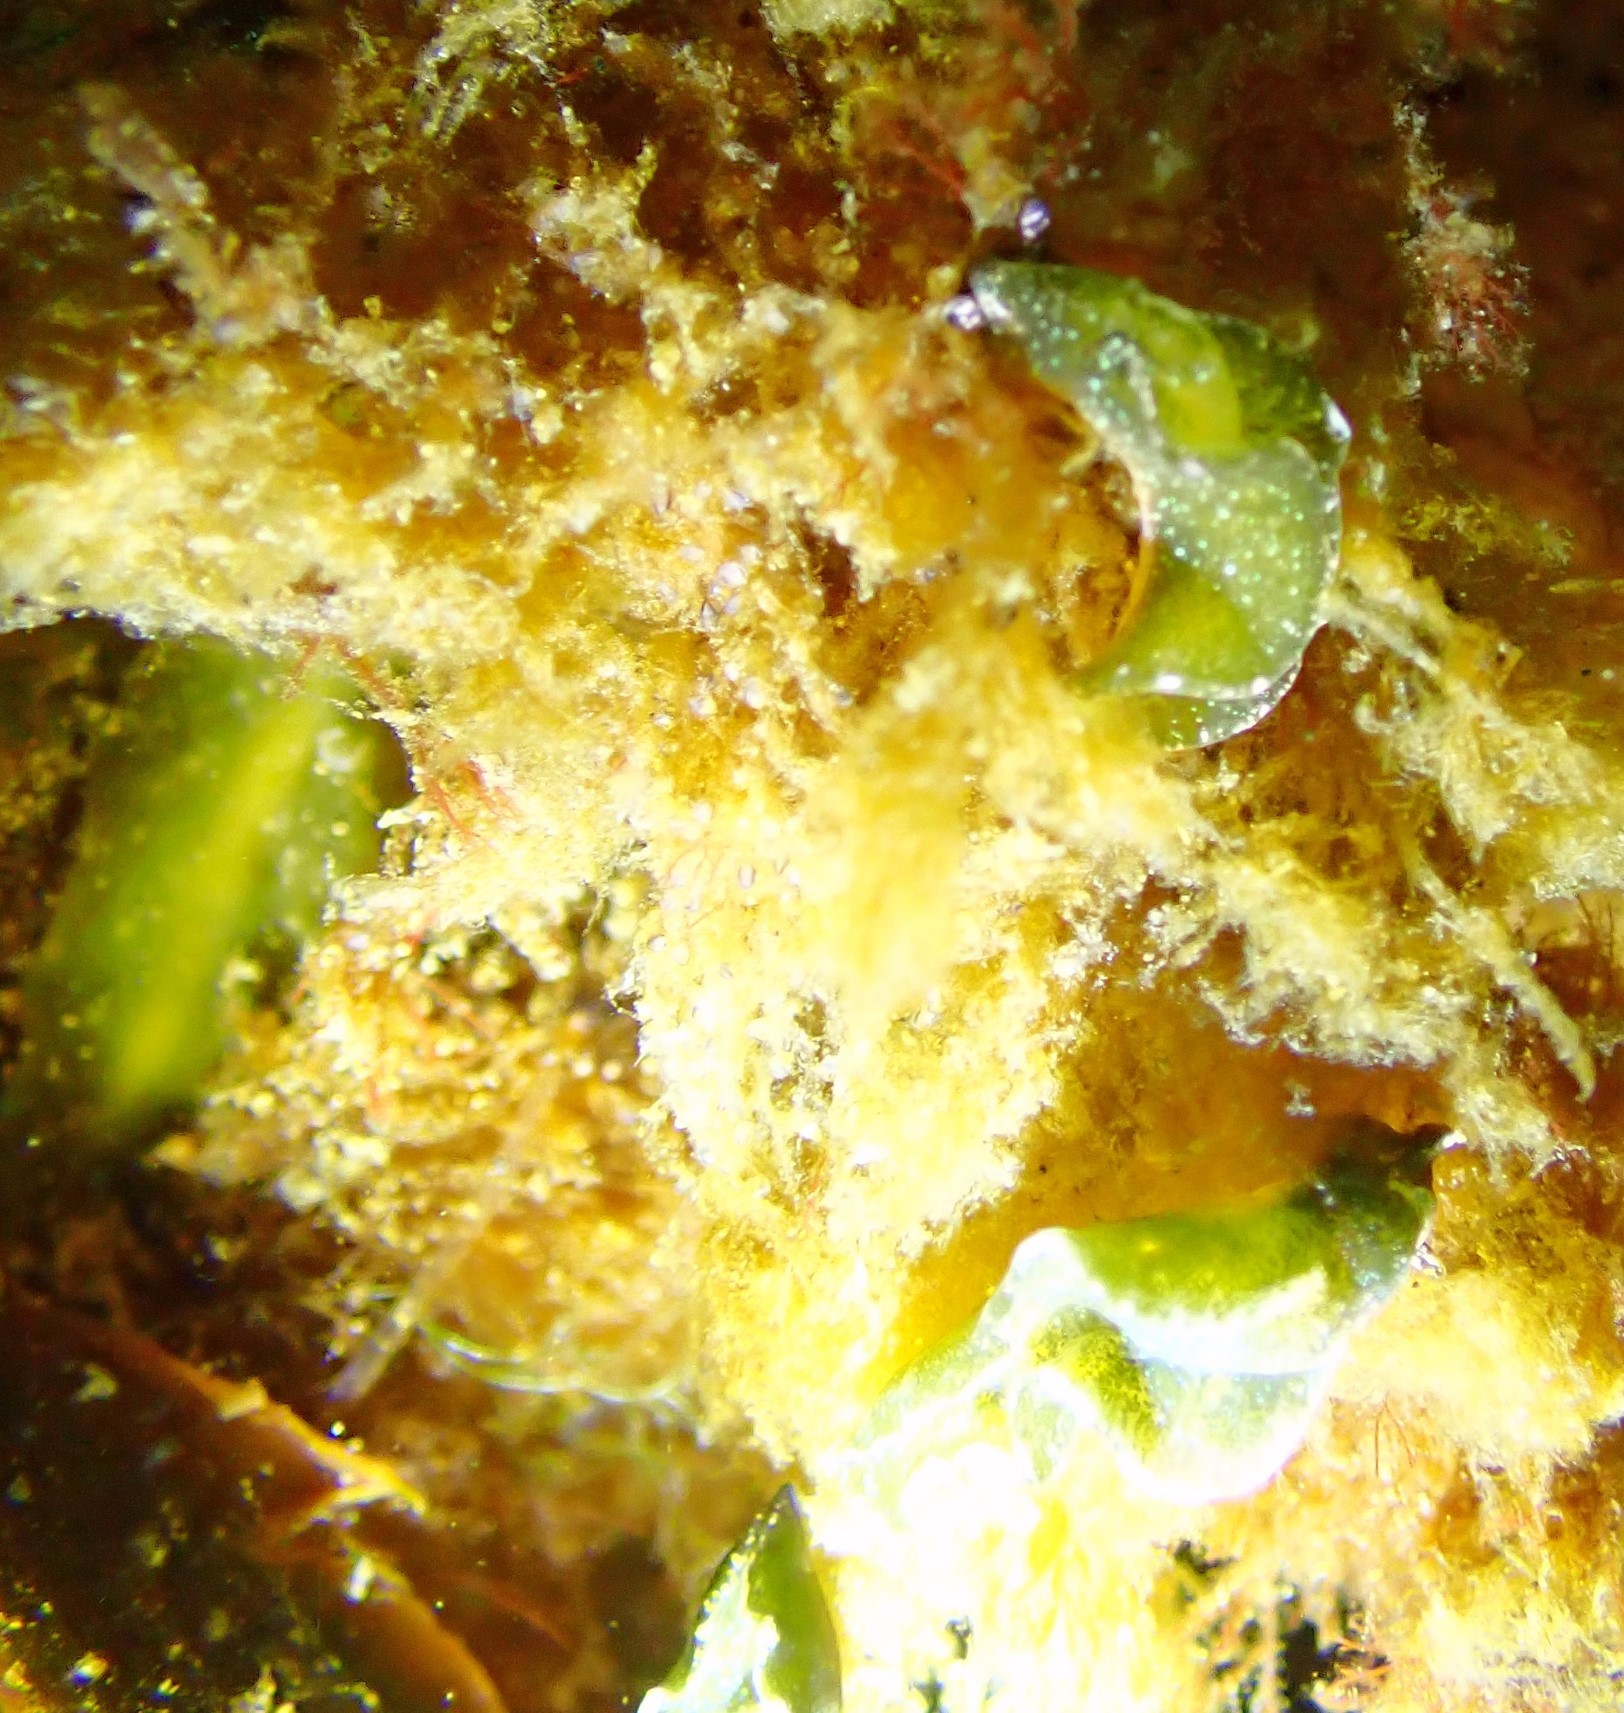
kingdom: Animalia
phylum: Mollusca
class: Gastropoda
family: Plakobranchidae
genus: Elysia
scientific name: Elysia viridis
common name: Green elysia
